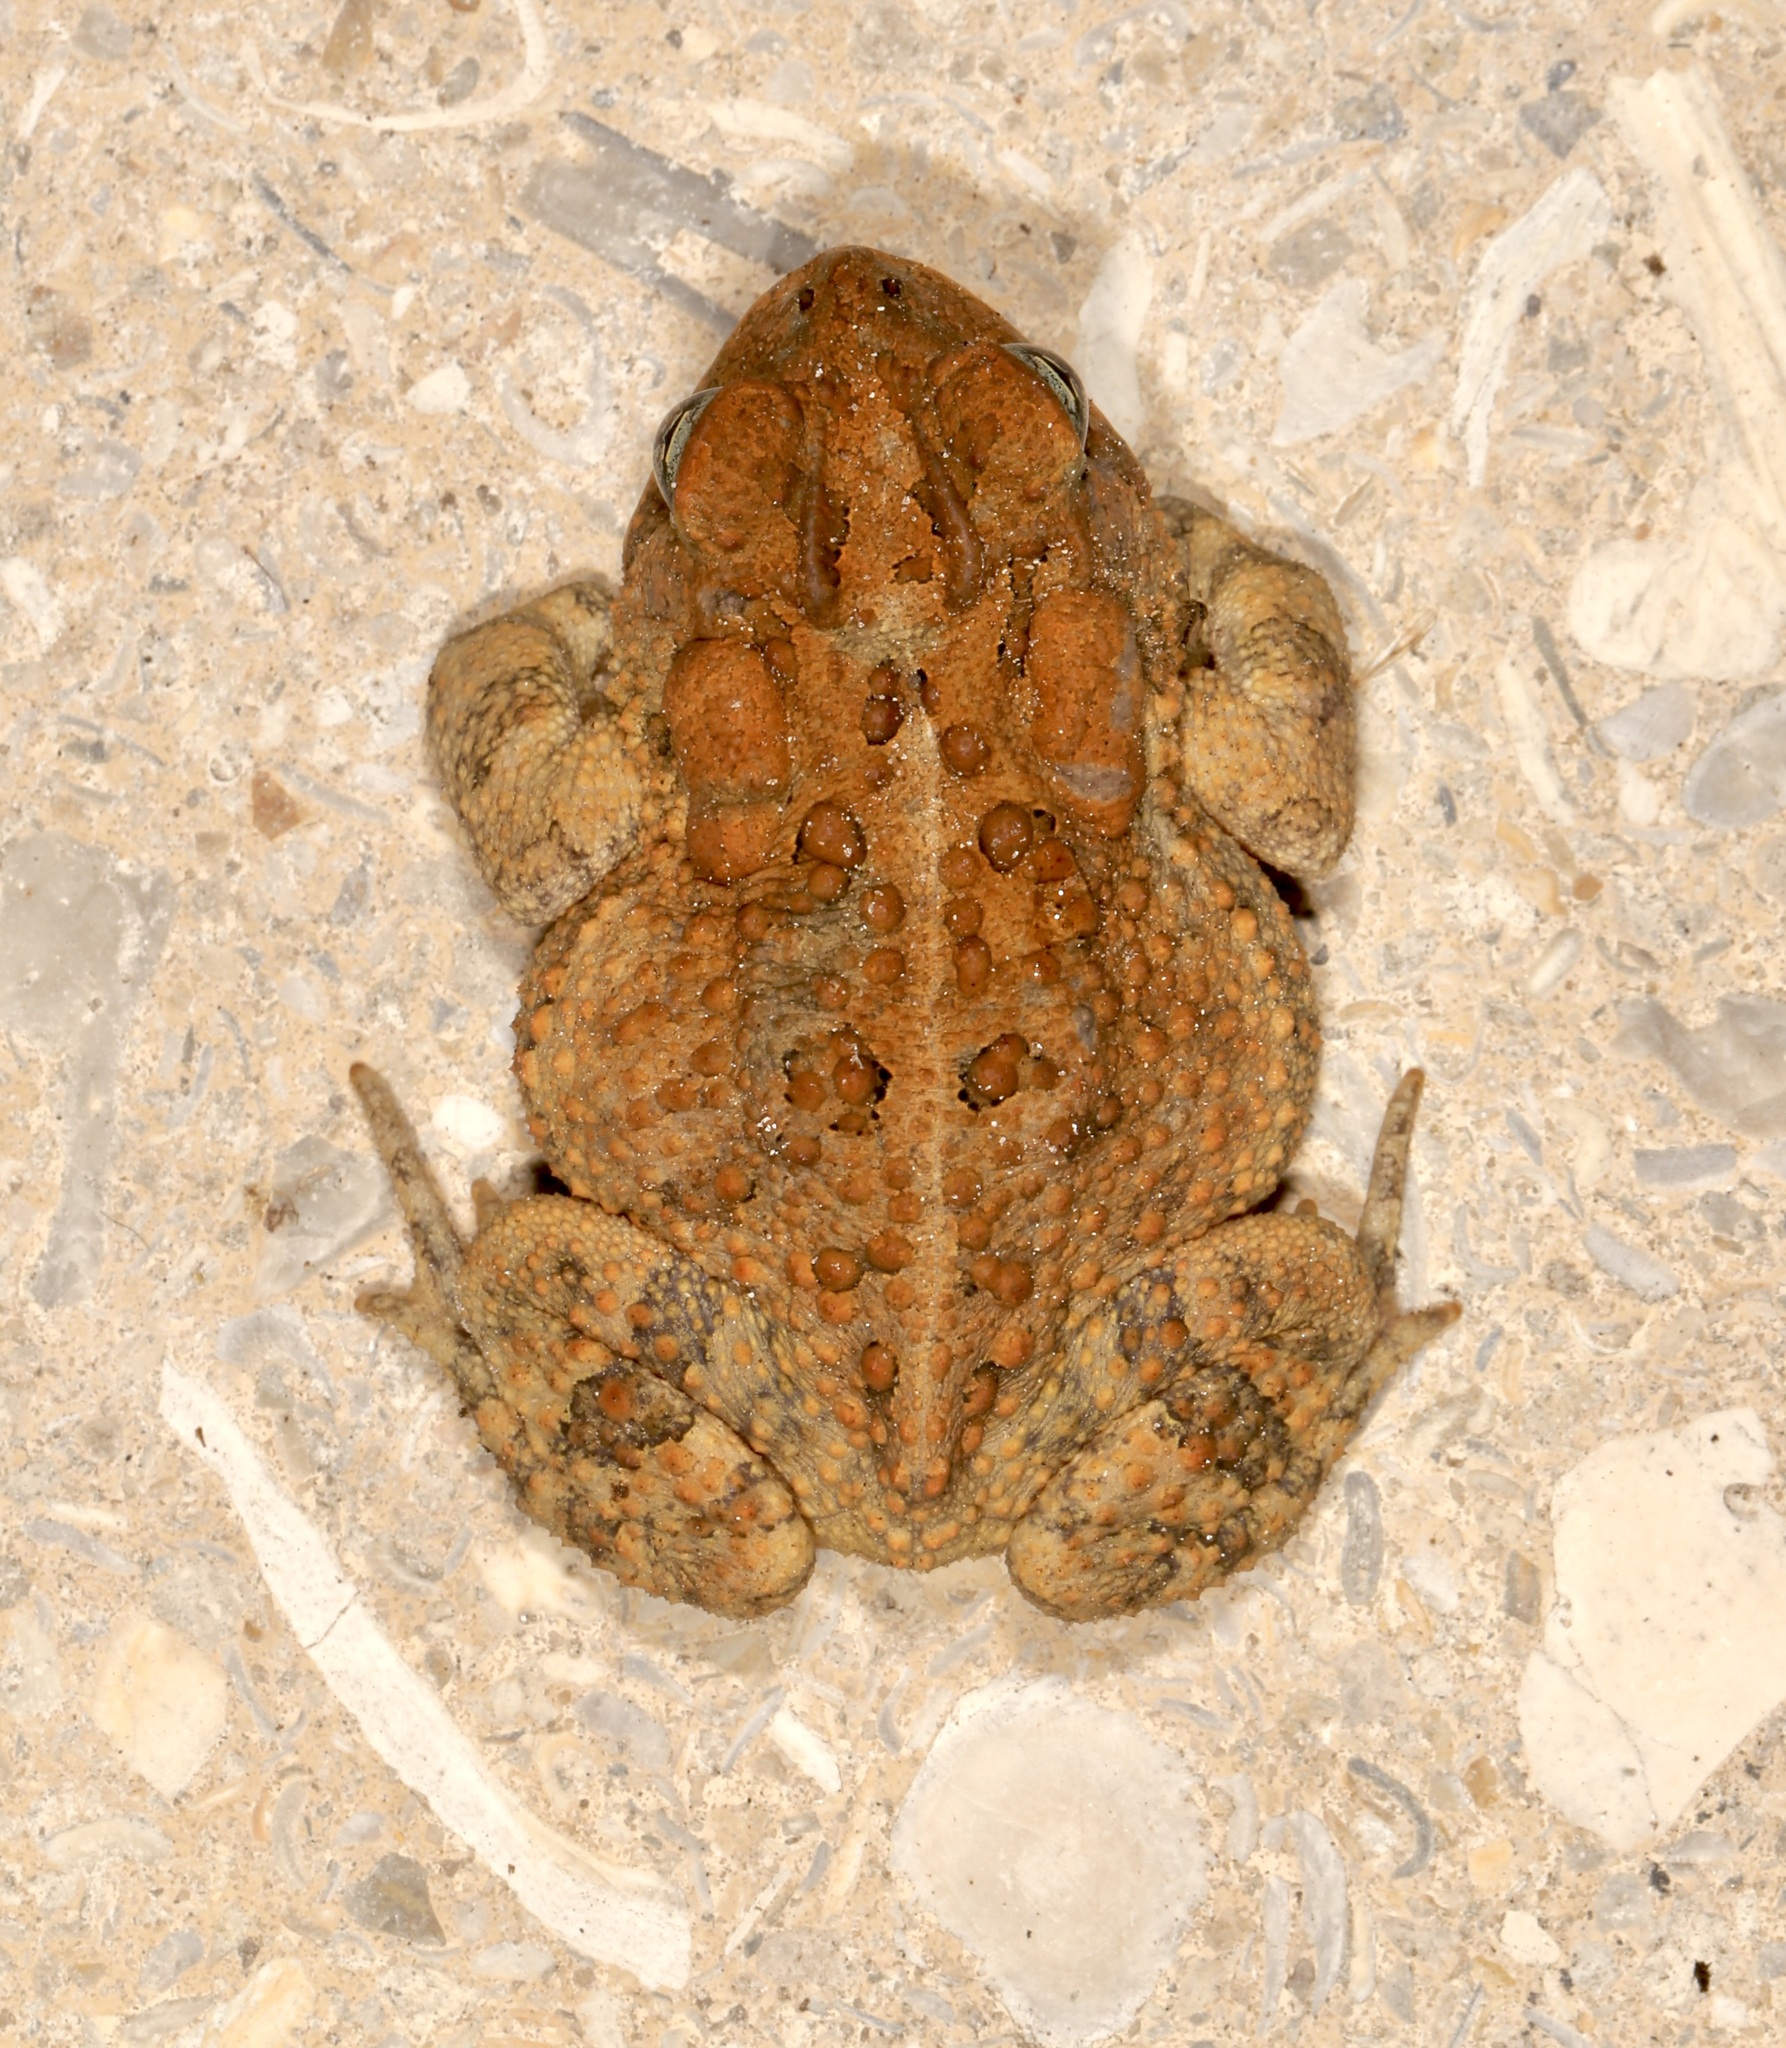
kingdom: Animalia
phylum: Chordata
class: Amphibia
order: Anura
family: Bufonidae
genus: Anaxyrus
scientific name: Anaxyrus terrestris
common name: Southern toad
